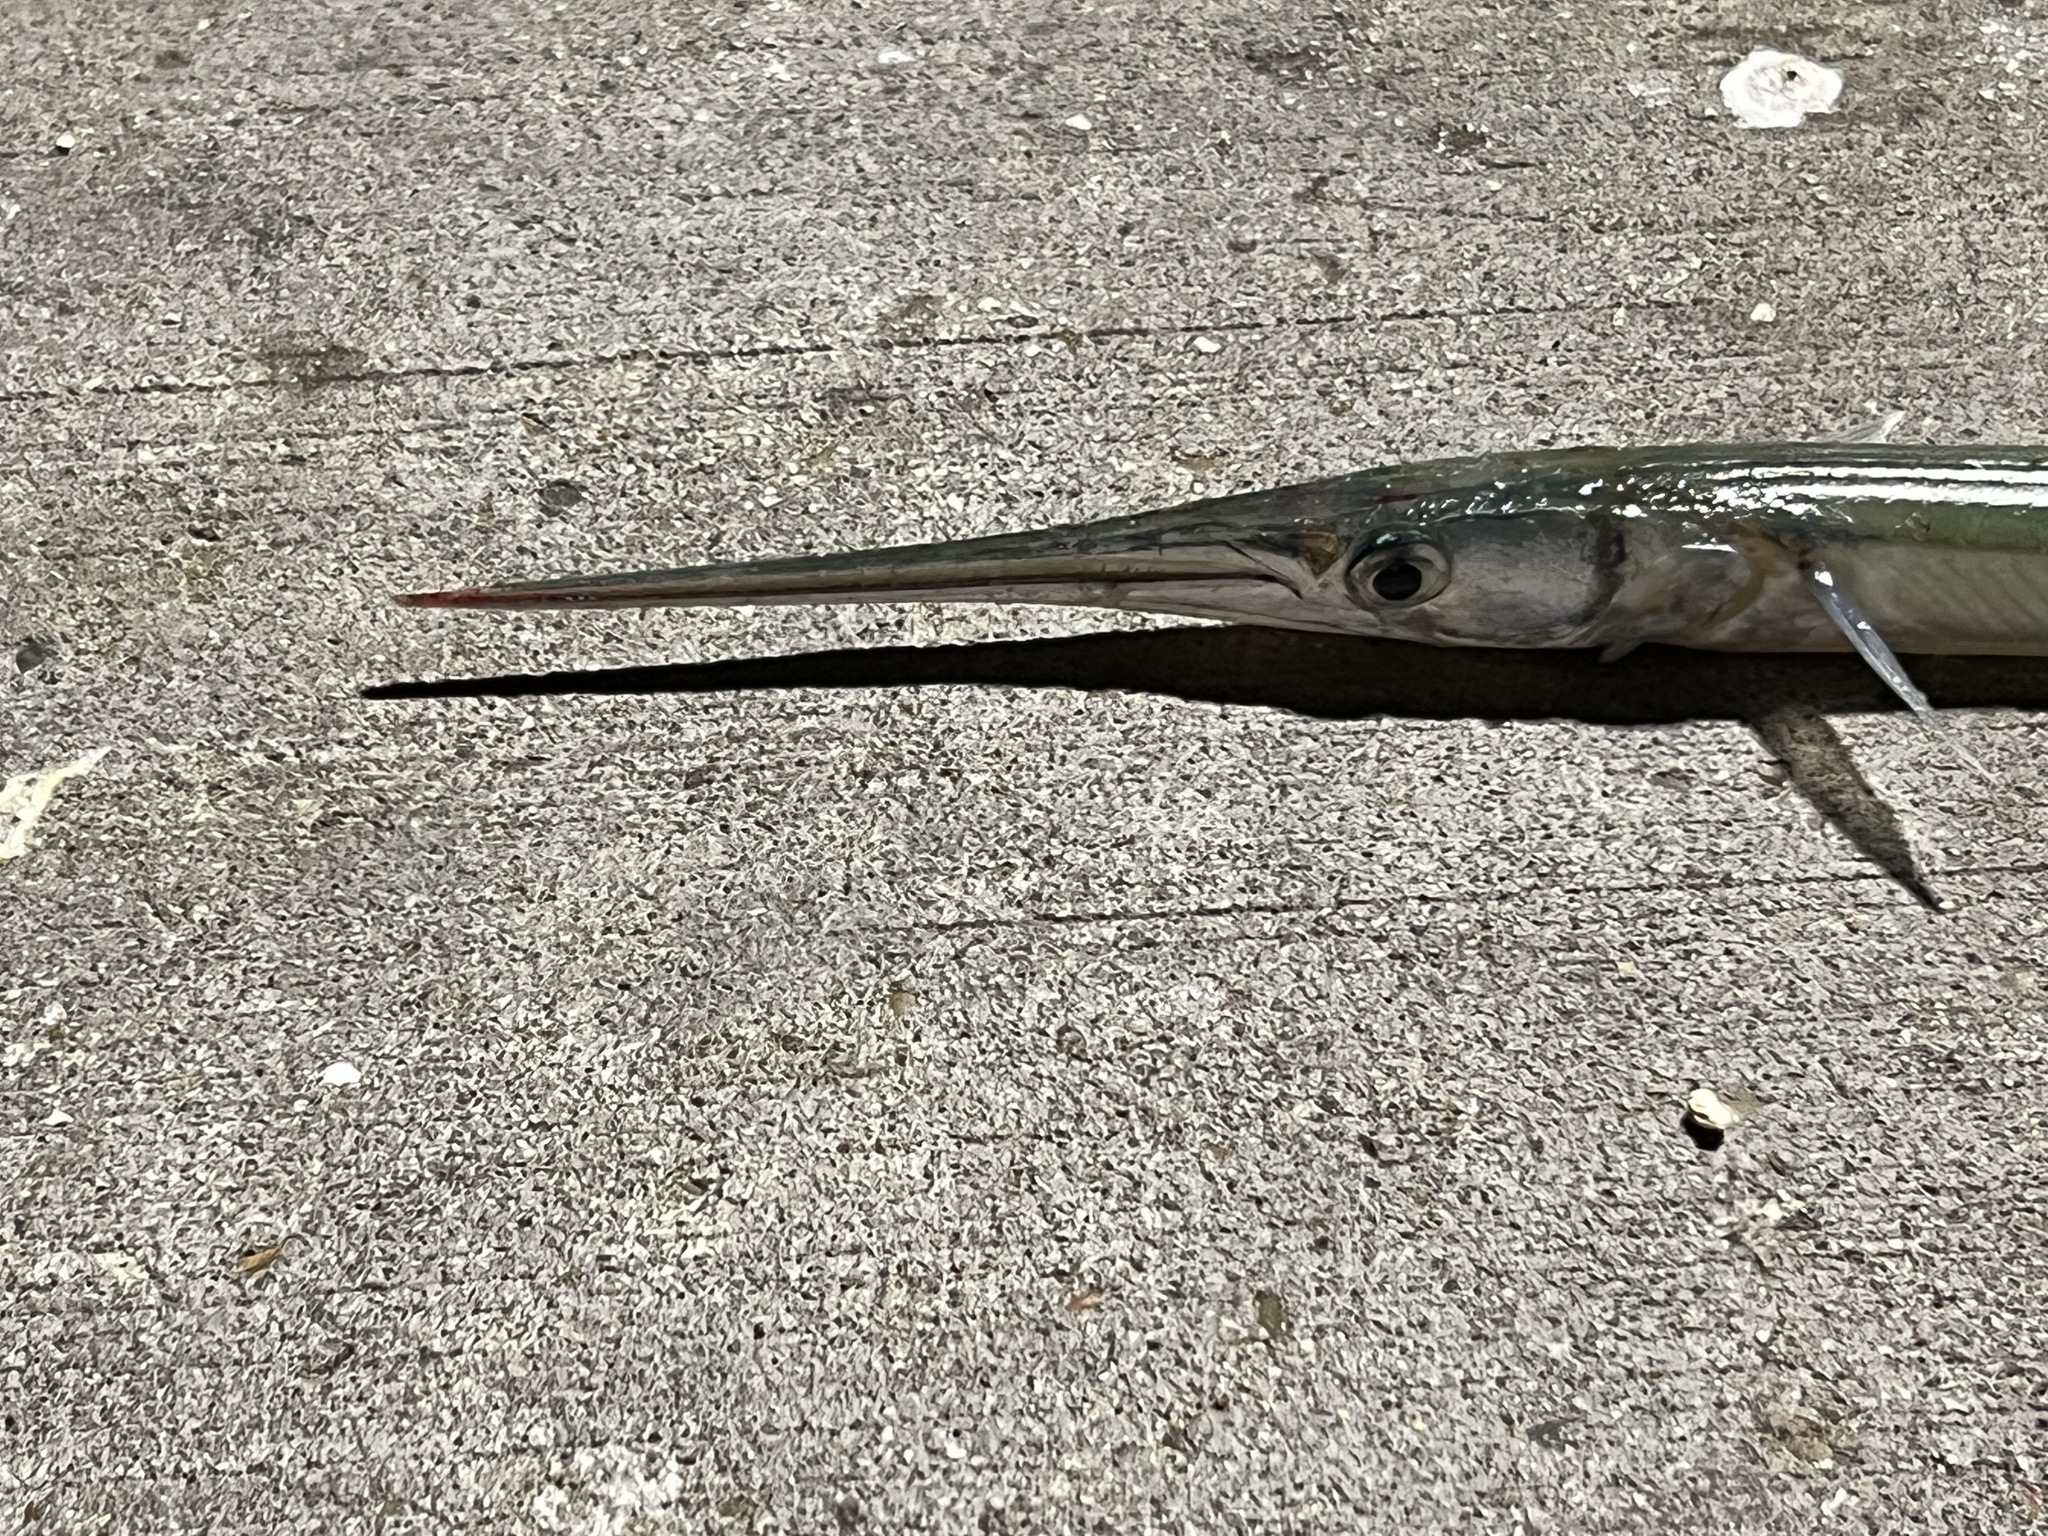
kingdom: Animalia
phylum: Chordata
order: Beloniformes
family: Belonidae
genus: Strongylura
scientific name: Strongylura marina
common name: Atlantic needlefish
